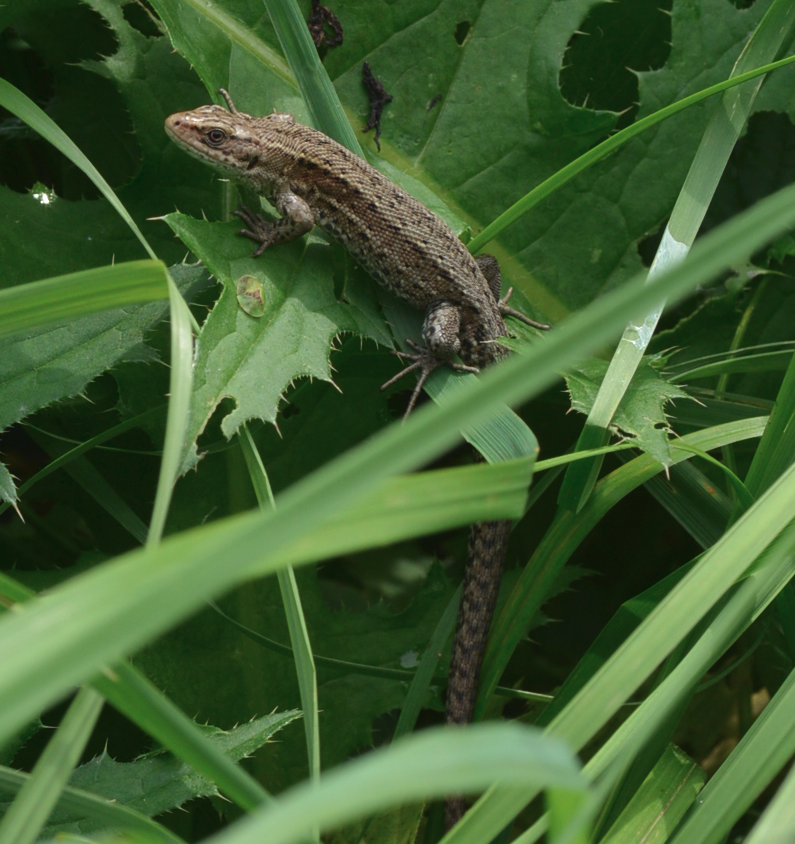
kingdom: Animalia
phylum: Chordata
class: Squamata
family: Lacertidae
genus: Zootoca
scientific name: Zootoca vivipara
